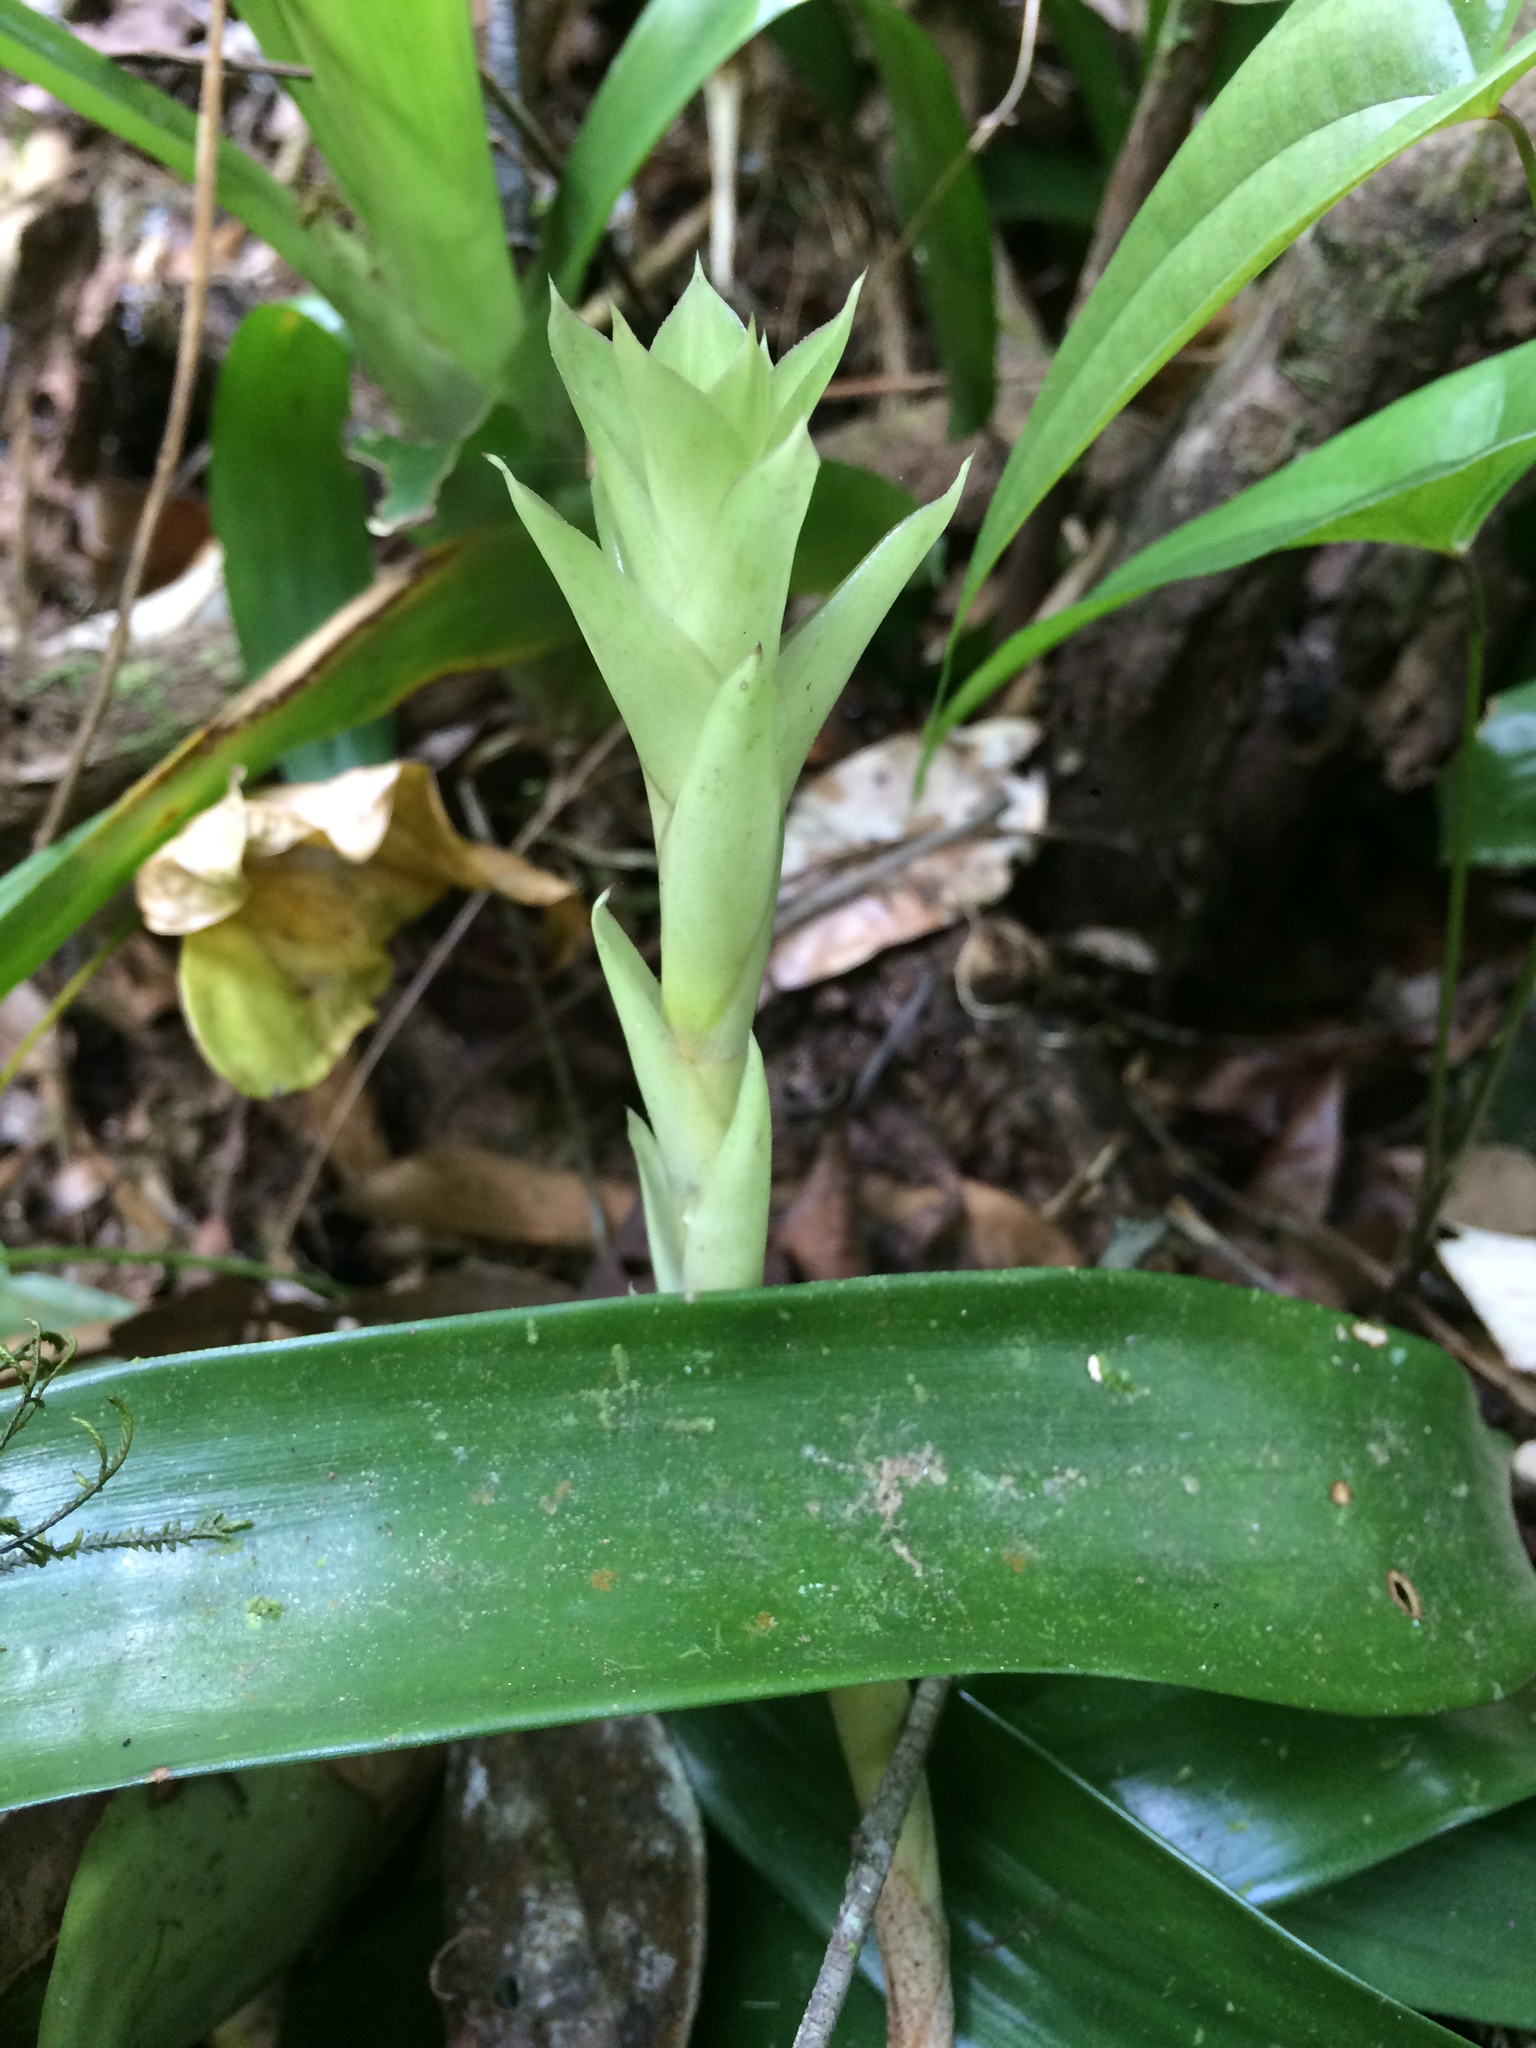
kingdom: Plantae
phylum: Tracheophyta
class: Liliopsida
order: Poales
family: Bromeliaceae
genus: Guzmania
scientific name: Guzmania lingulata
